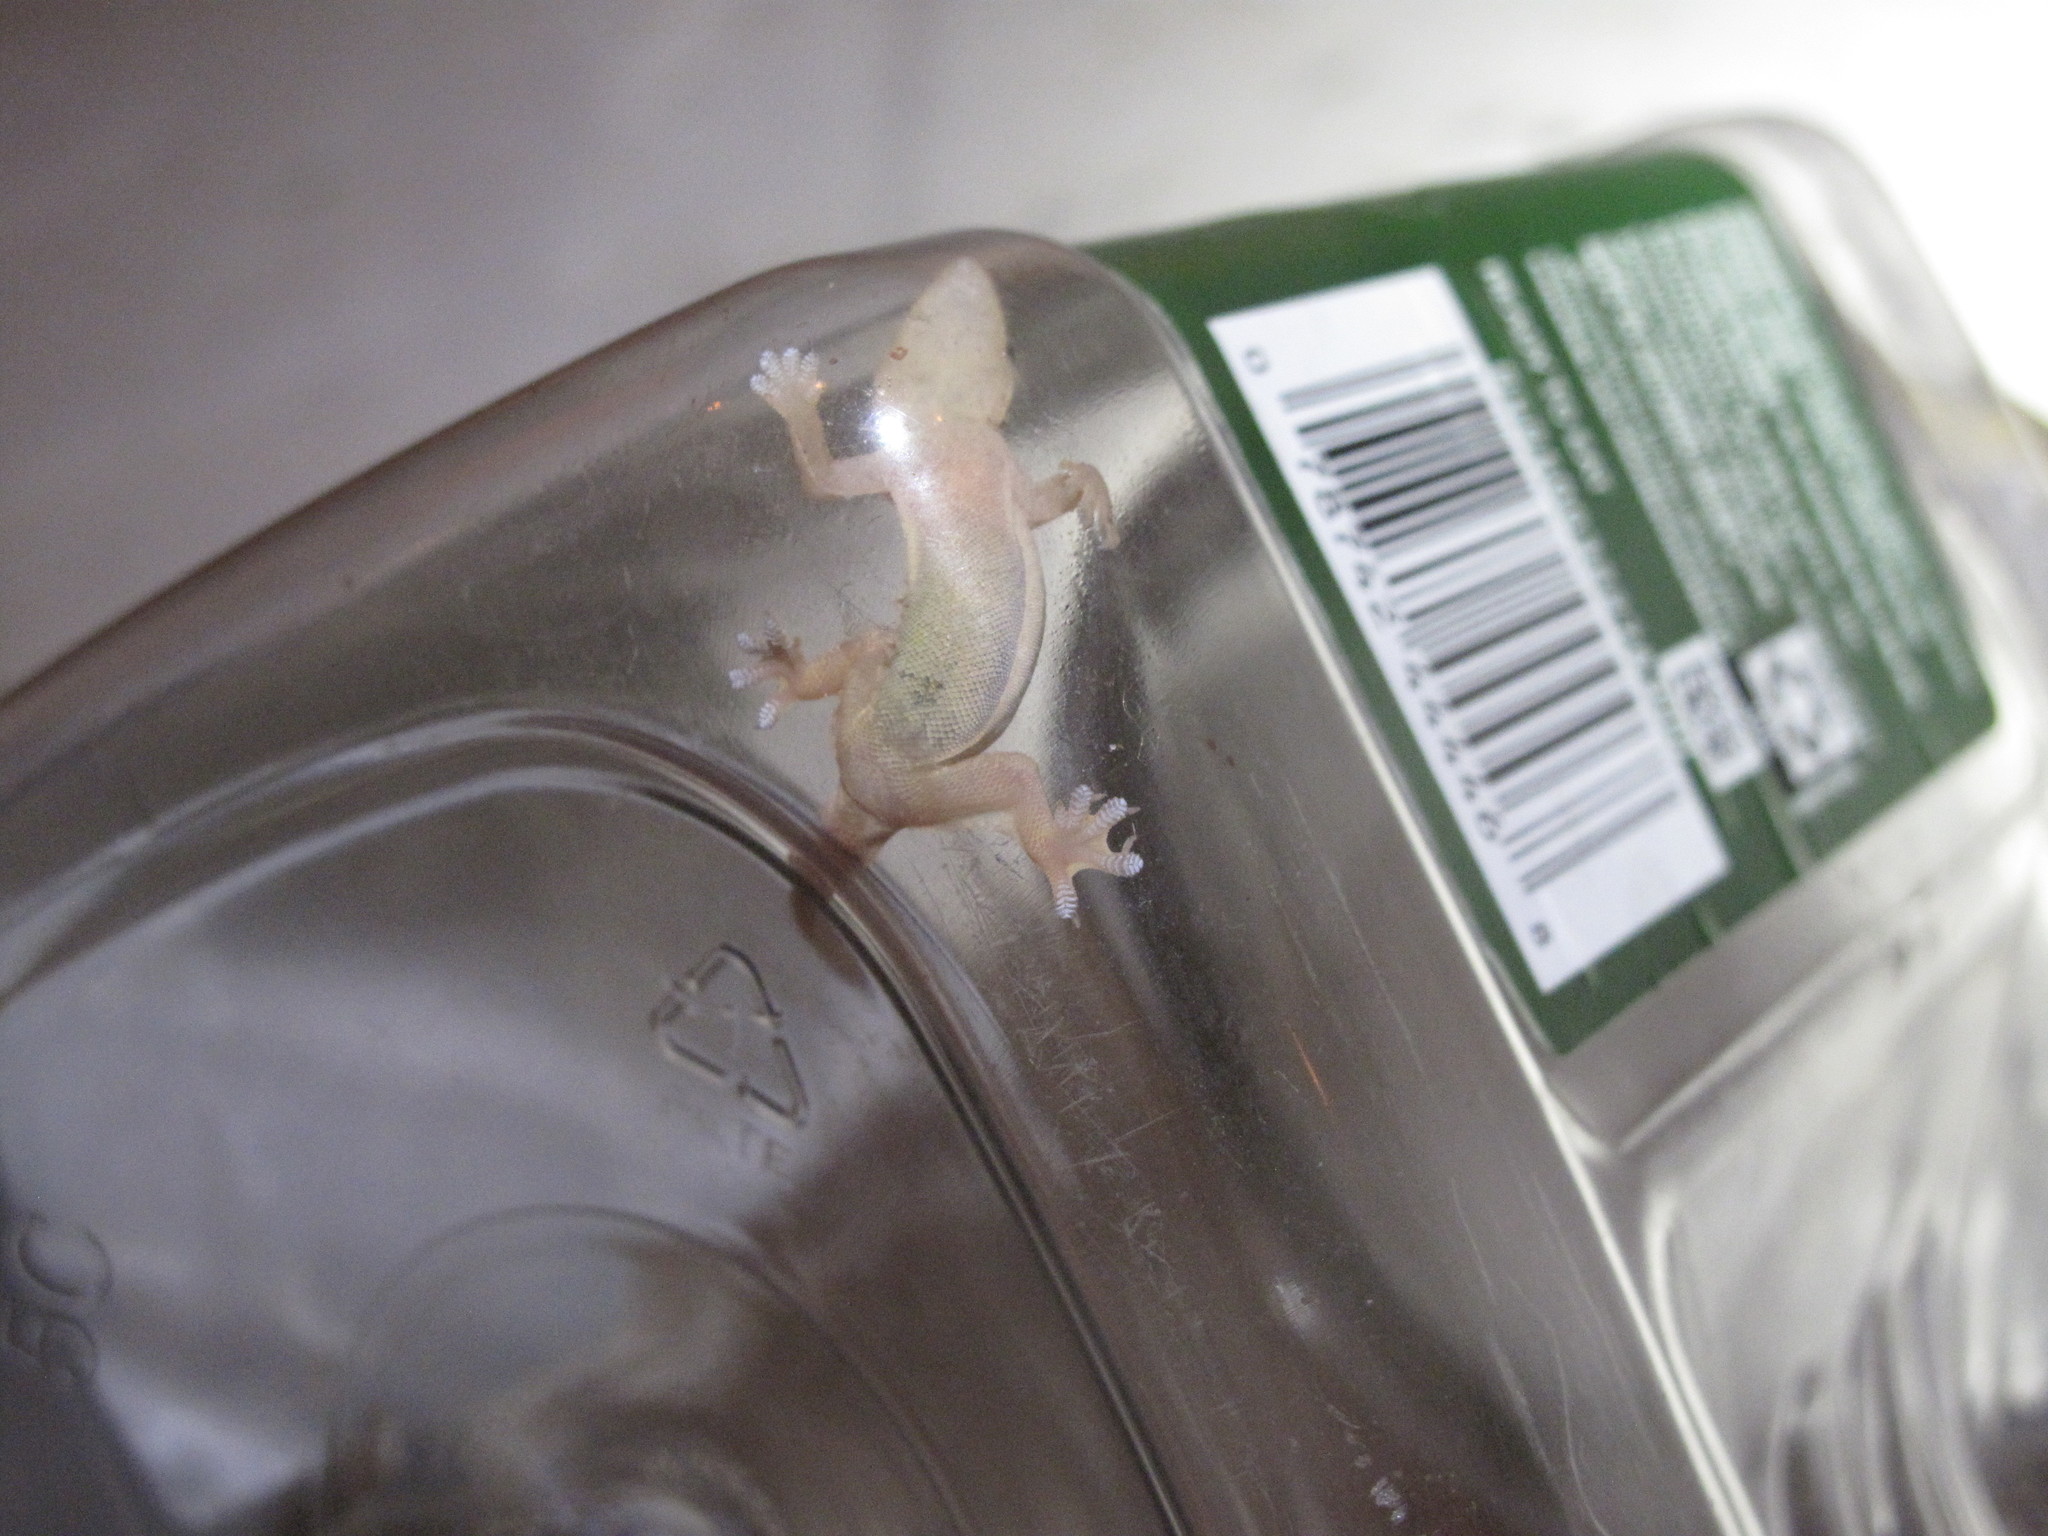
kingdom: Animalia
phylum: Chordata
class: Squamata
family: Gekkonidae
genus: Hemidactylus
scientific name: Hemidactylus platyurus
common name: Flat-tailed house gecko
